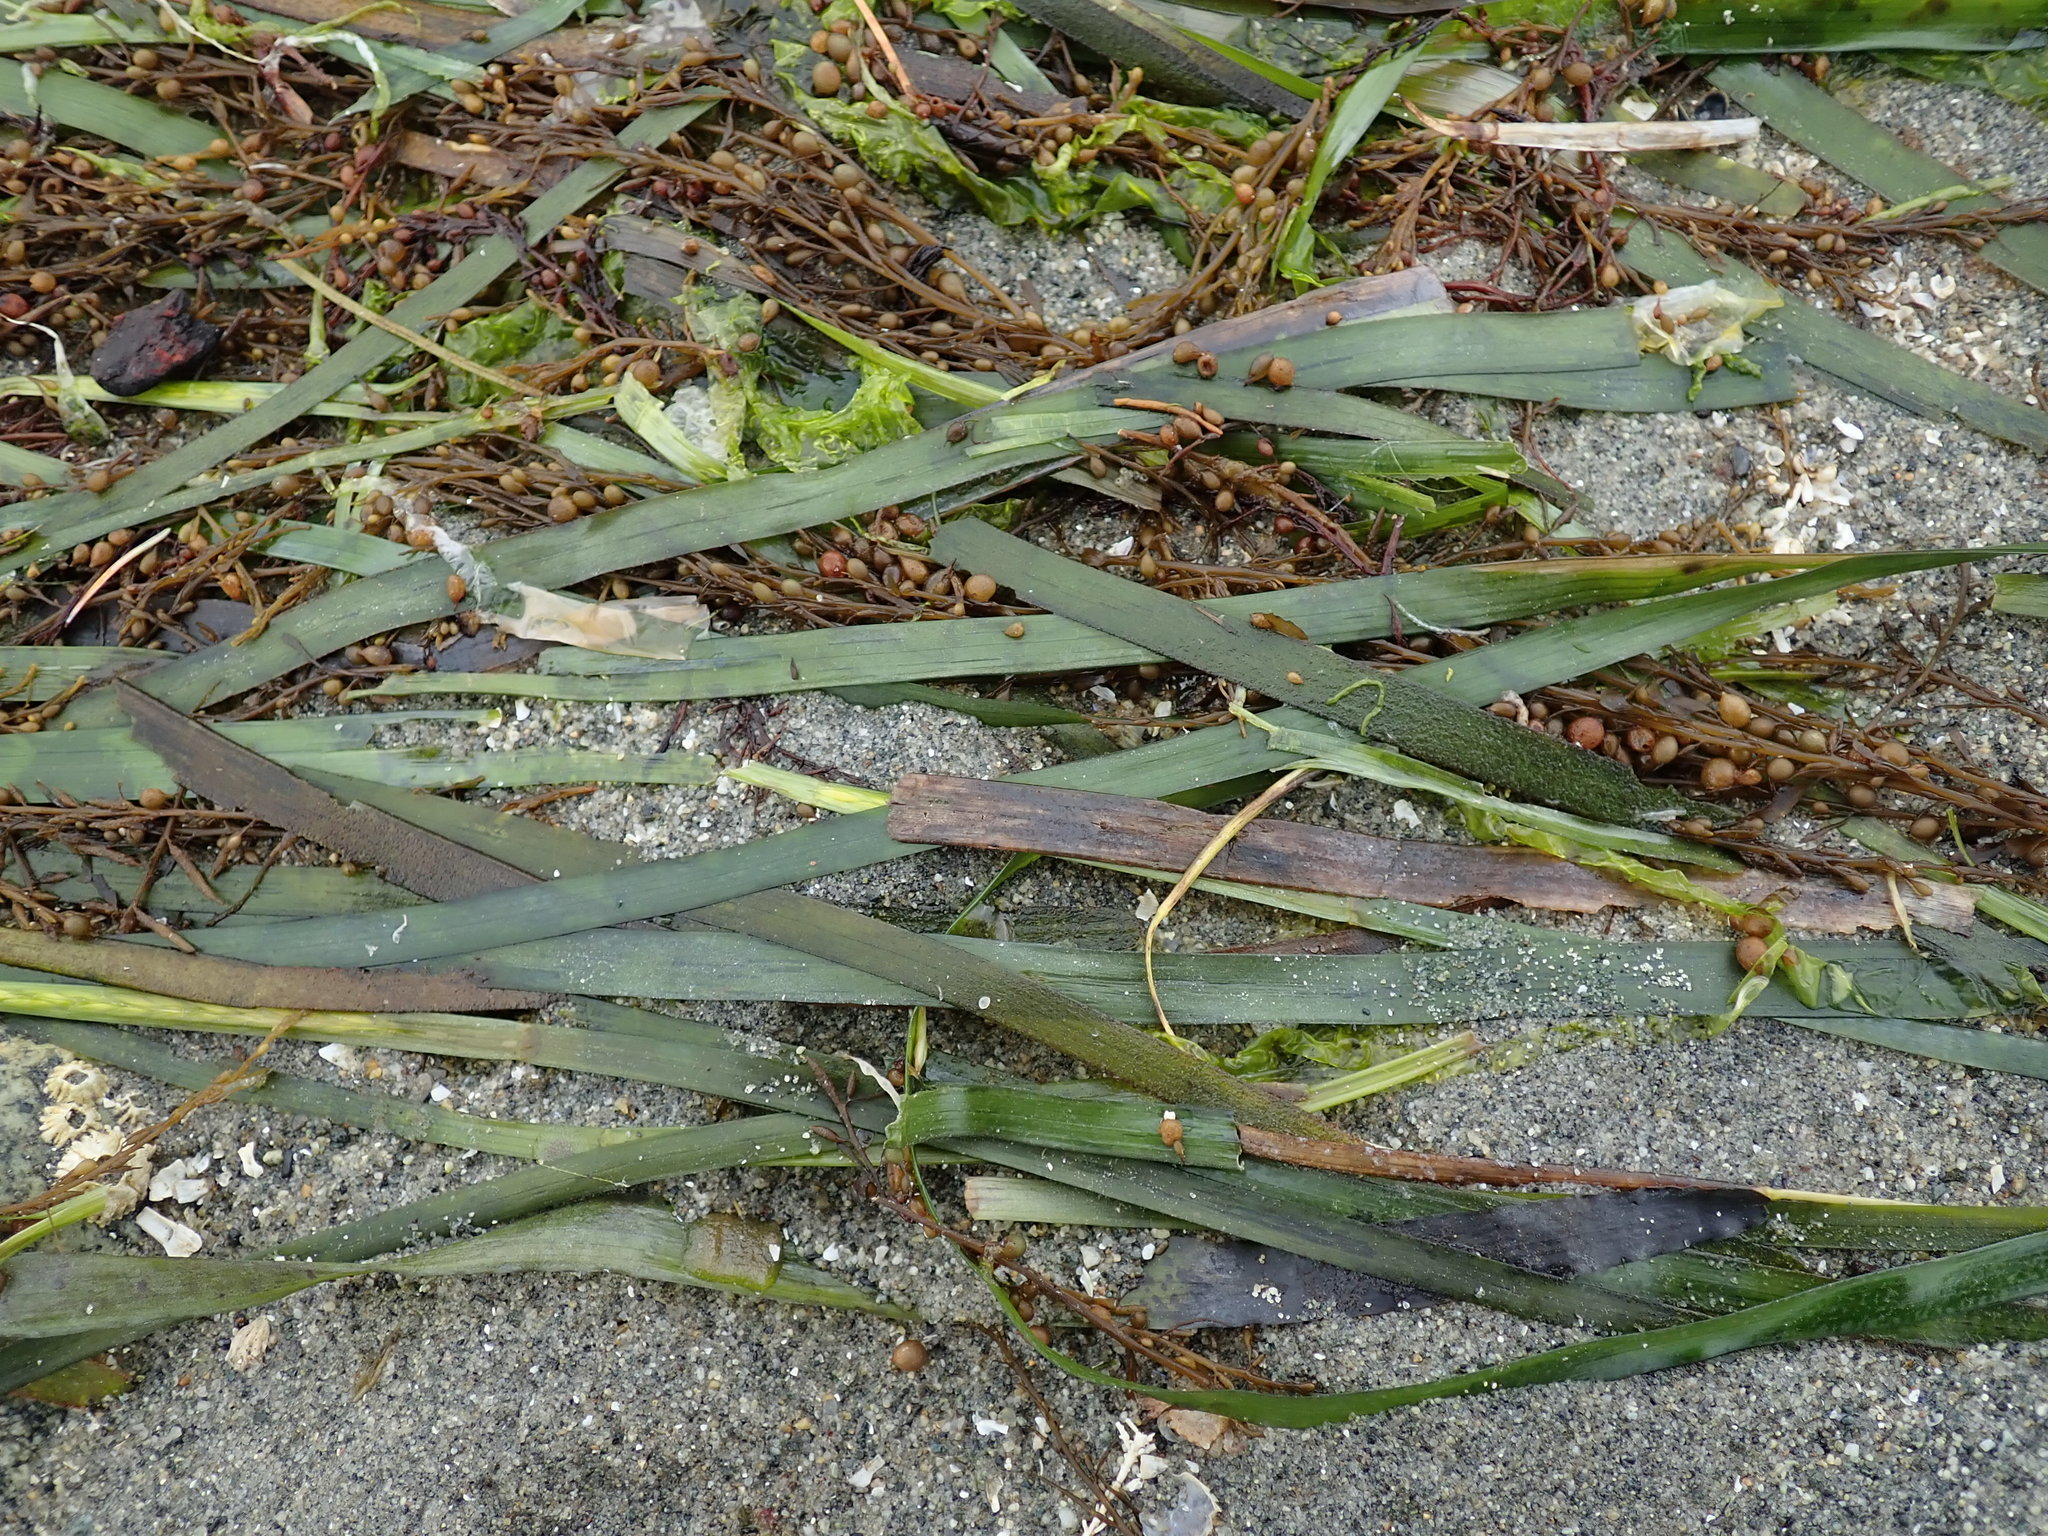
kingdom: Plantae
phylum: Tracheophyta
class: Liliopsida
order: Alismatales
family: Zosteraceae
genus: Zostera
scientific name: Zostera marina
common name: Eelgrass
